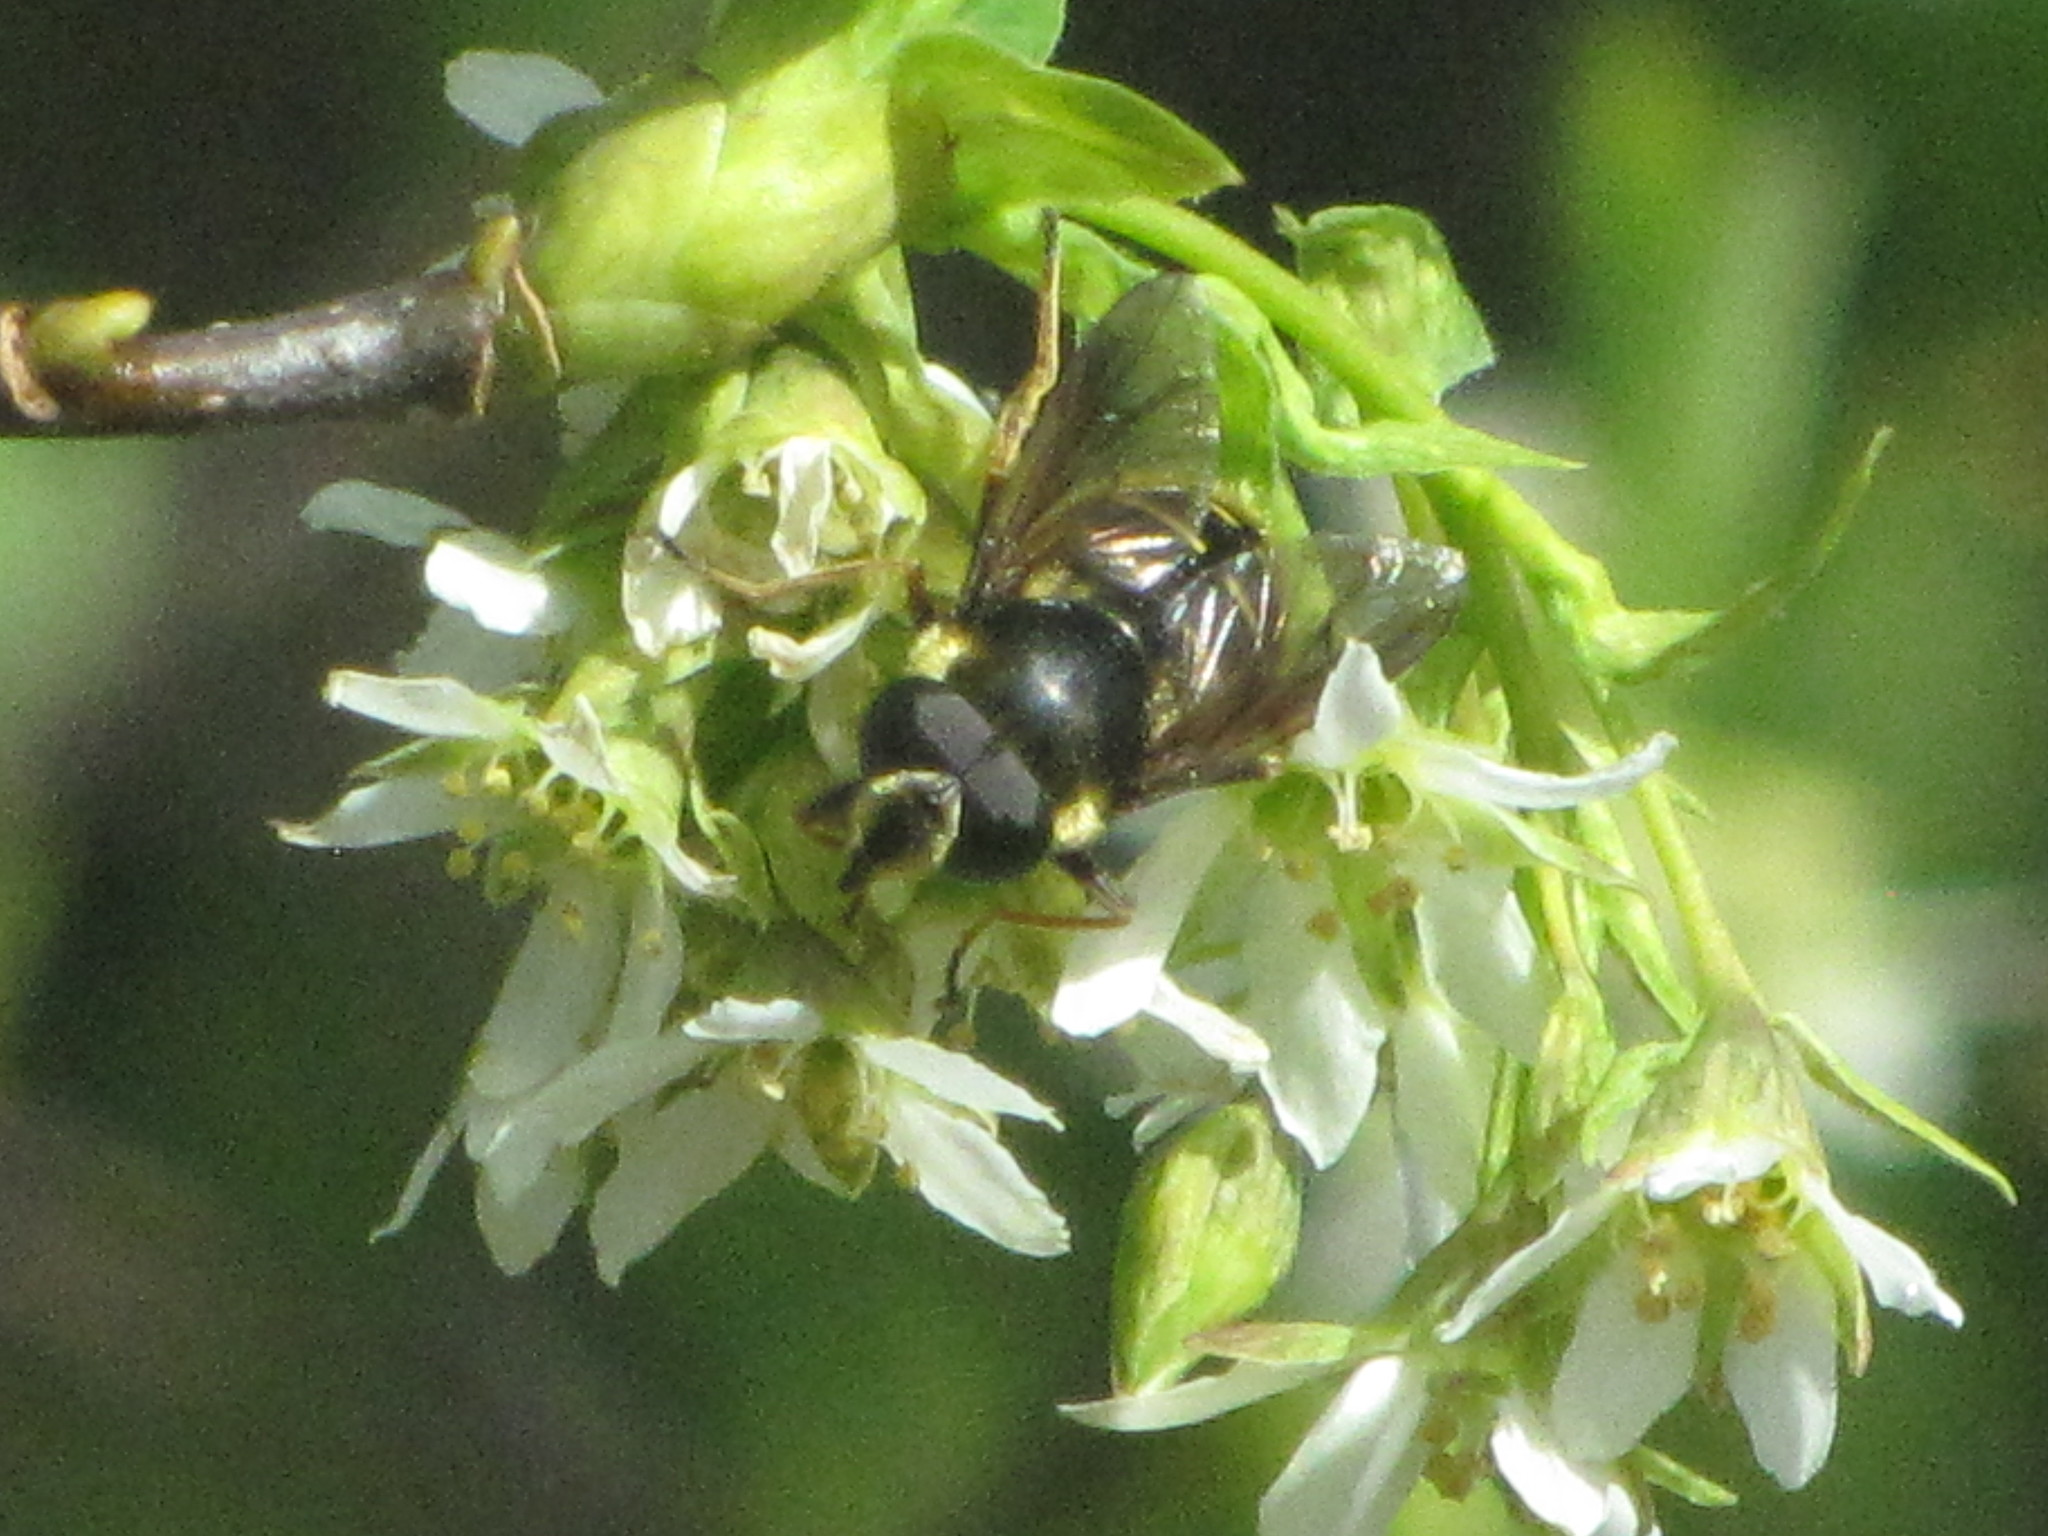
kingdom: Animalia
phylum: Arthropoda
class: Insecta
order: Diptera
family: Syrphidae
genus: Sericomyia
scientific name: Sericomyia chalcopyga
